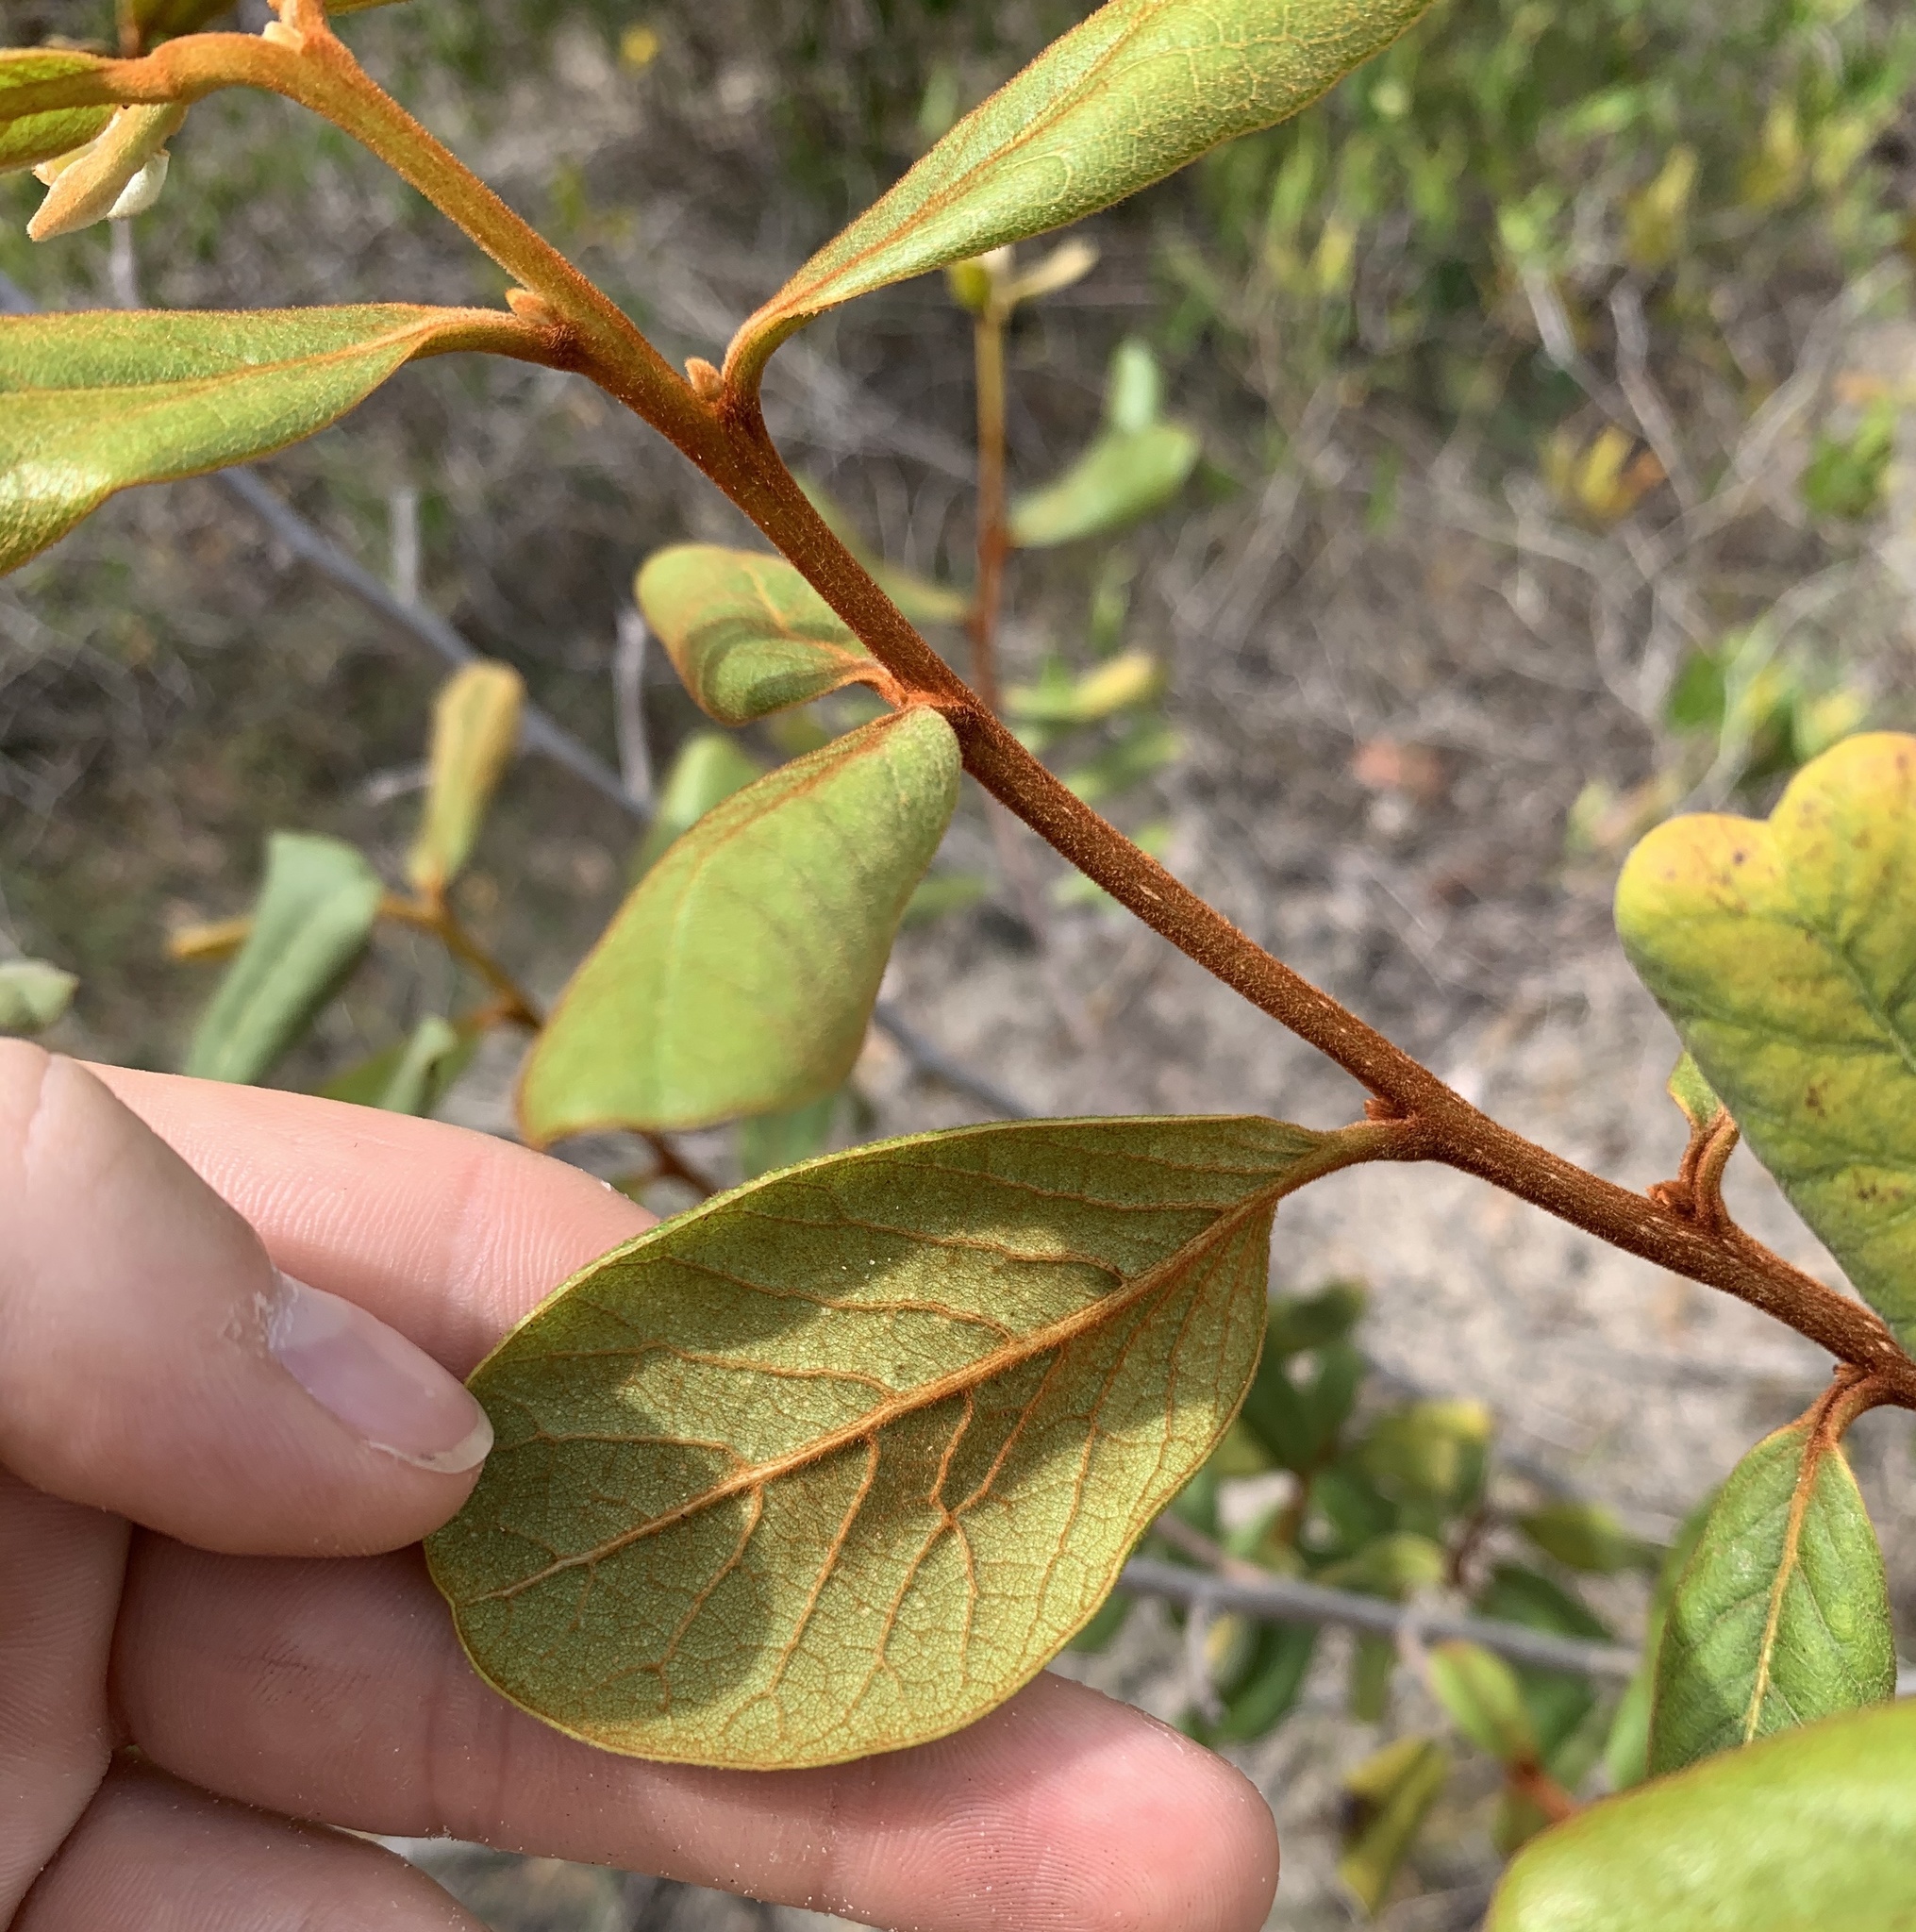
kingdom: Plantae
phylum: Tracheophyta
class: Magnoliopsida
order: Magnoliales
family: Annonaceae
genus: Asimina
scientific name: Asimina obovata
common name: Flag pawpaw
